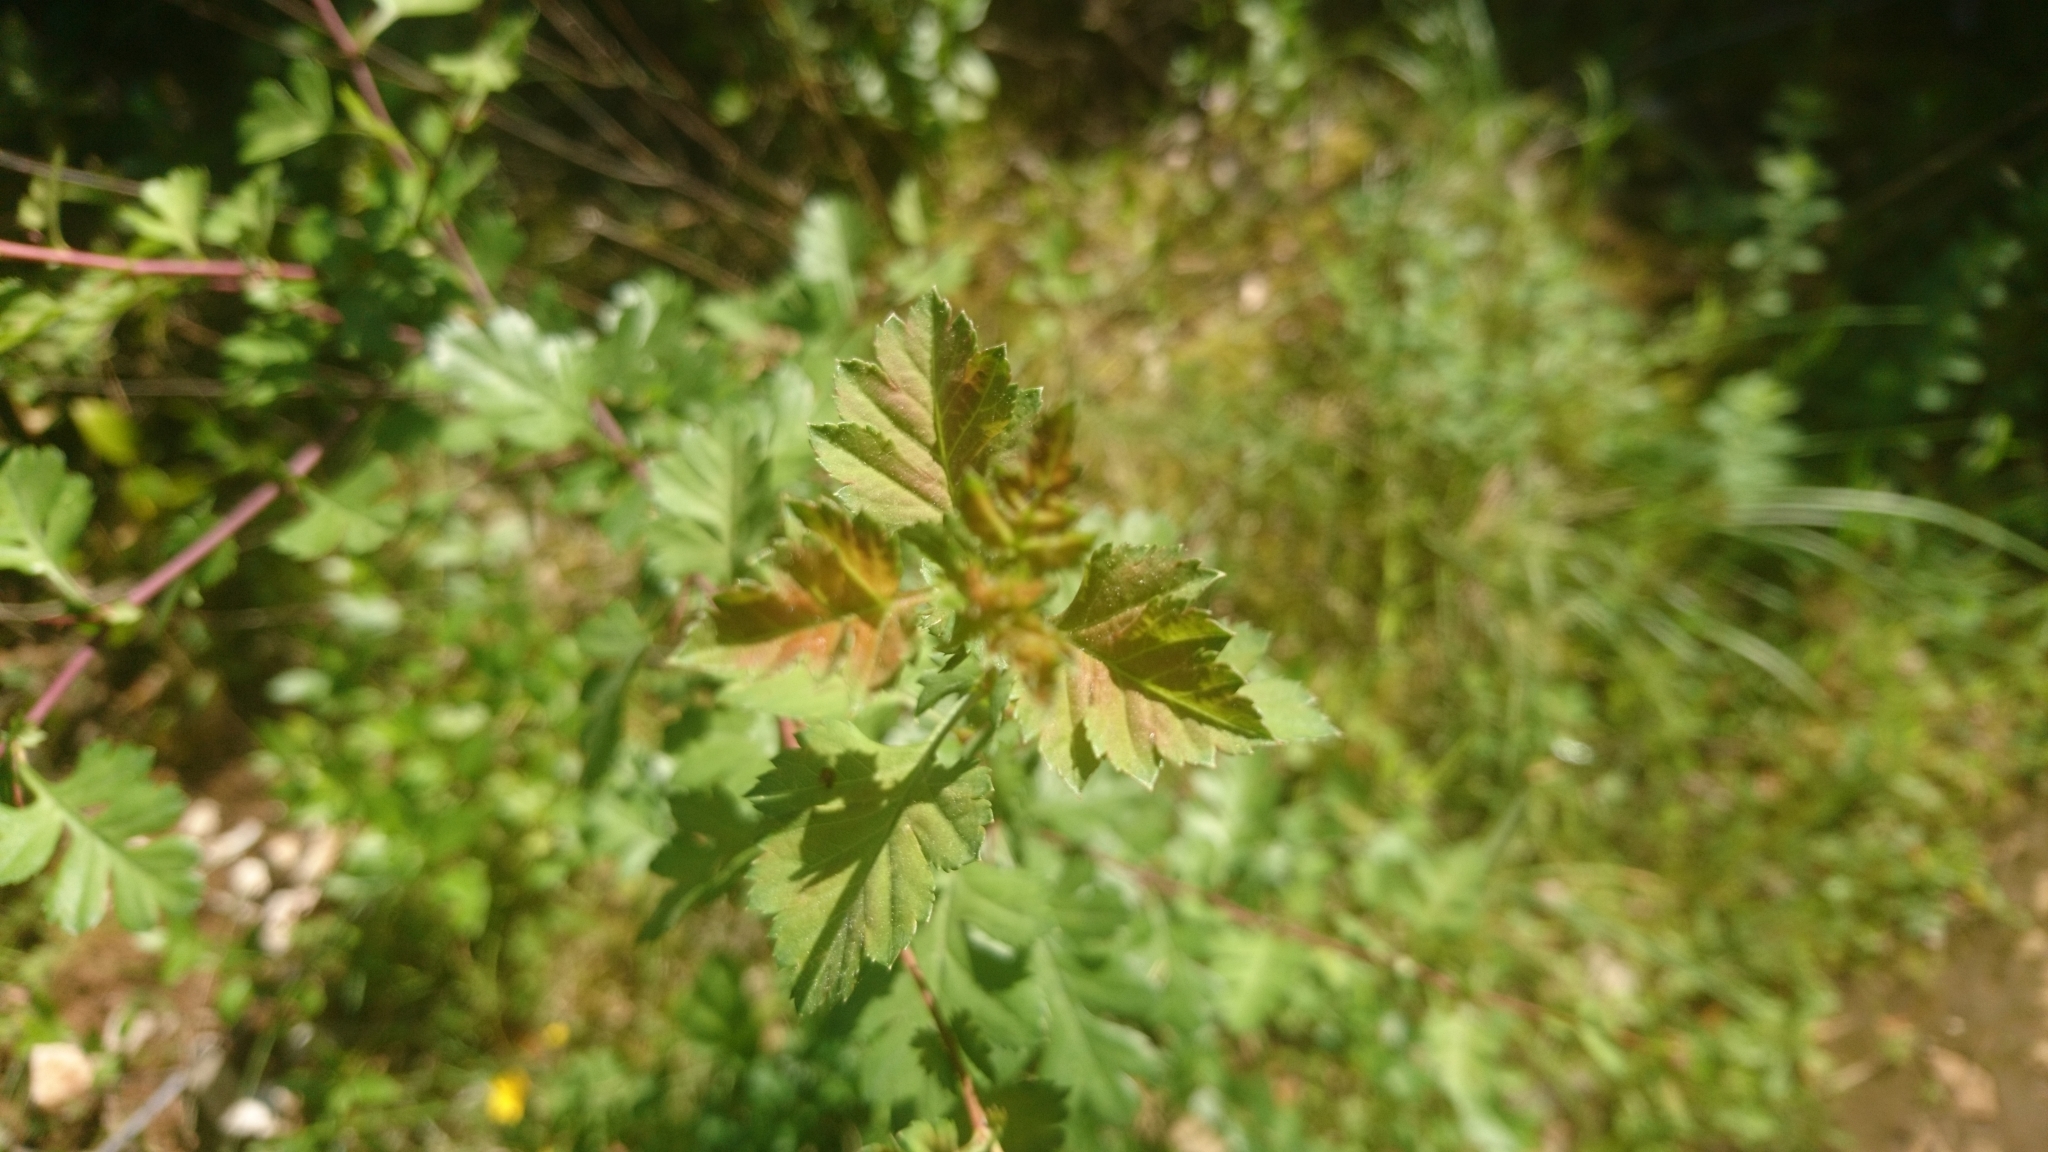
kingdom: Plantae
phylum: Tracheophyta
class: Magnoliopsida
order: Rosales
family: Rosaceae
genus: Crataegus
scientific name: Crataegus monogyna
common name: Hawthorn
